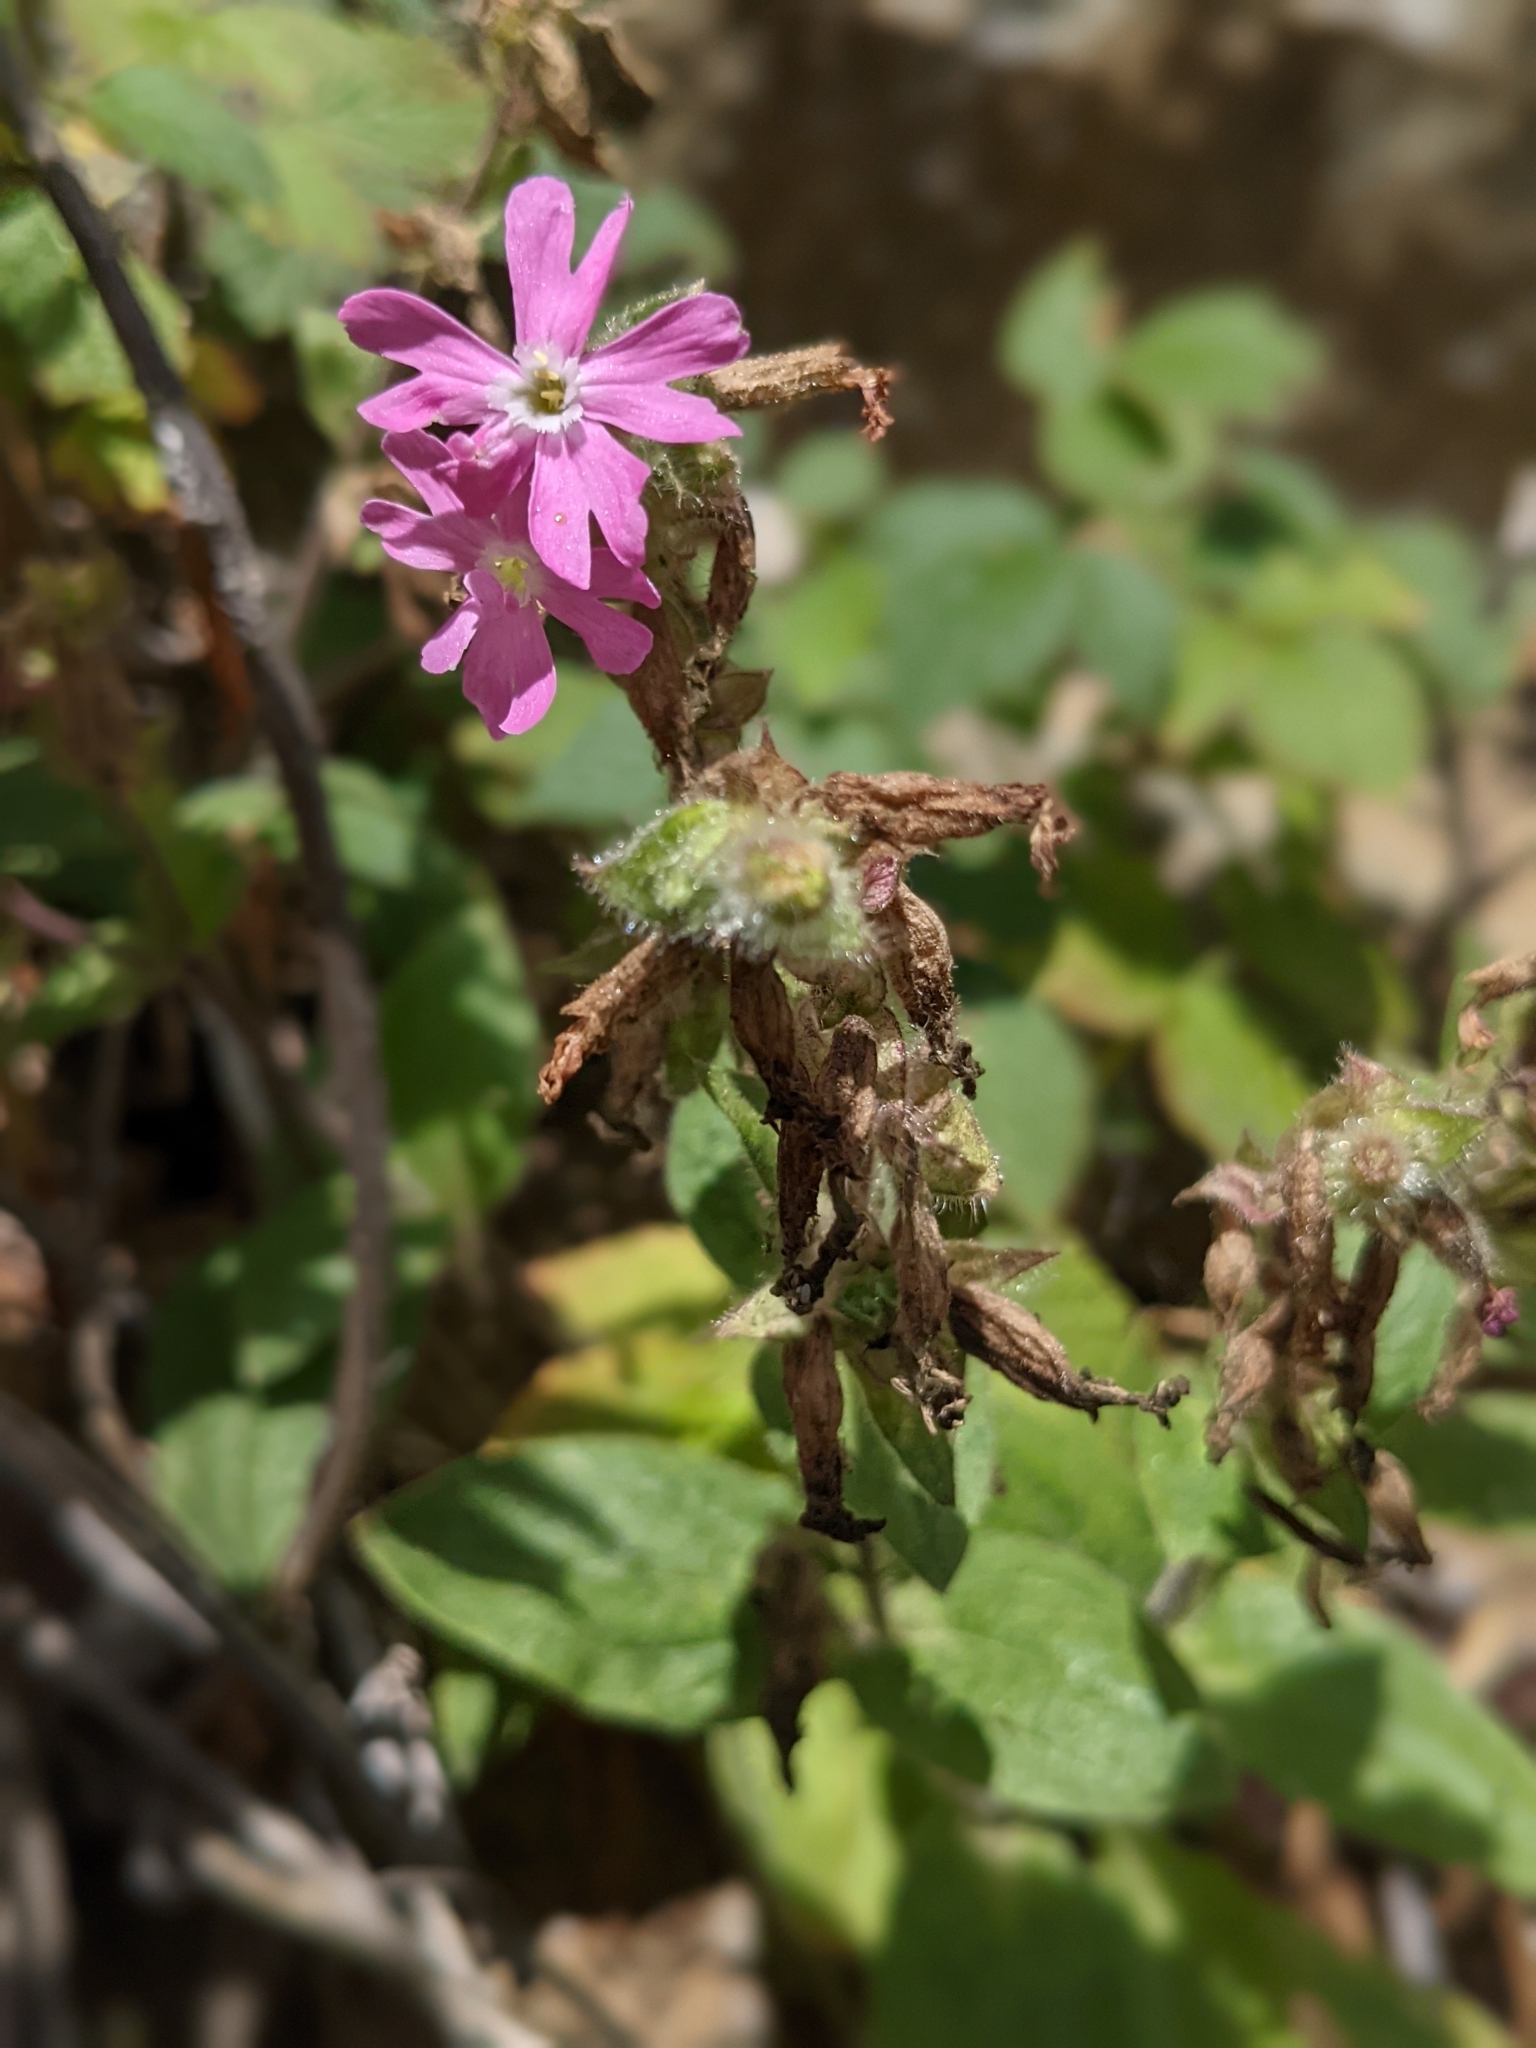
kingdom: Plantae
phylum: Tracheophyta
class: Magnoliopsida
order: Caryophyllales
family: Caryophyllaceae
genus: Silene
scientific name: Silene dioica
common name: Red campion
